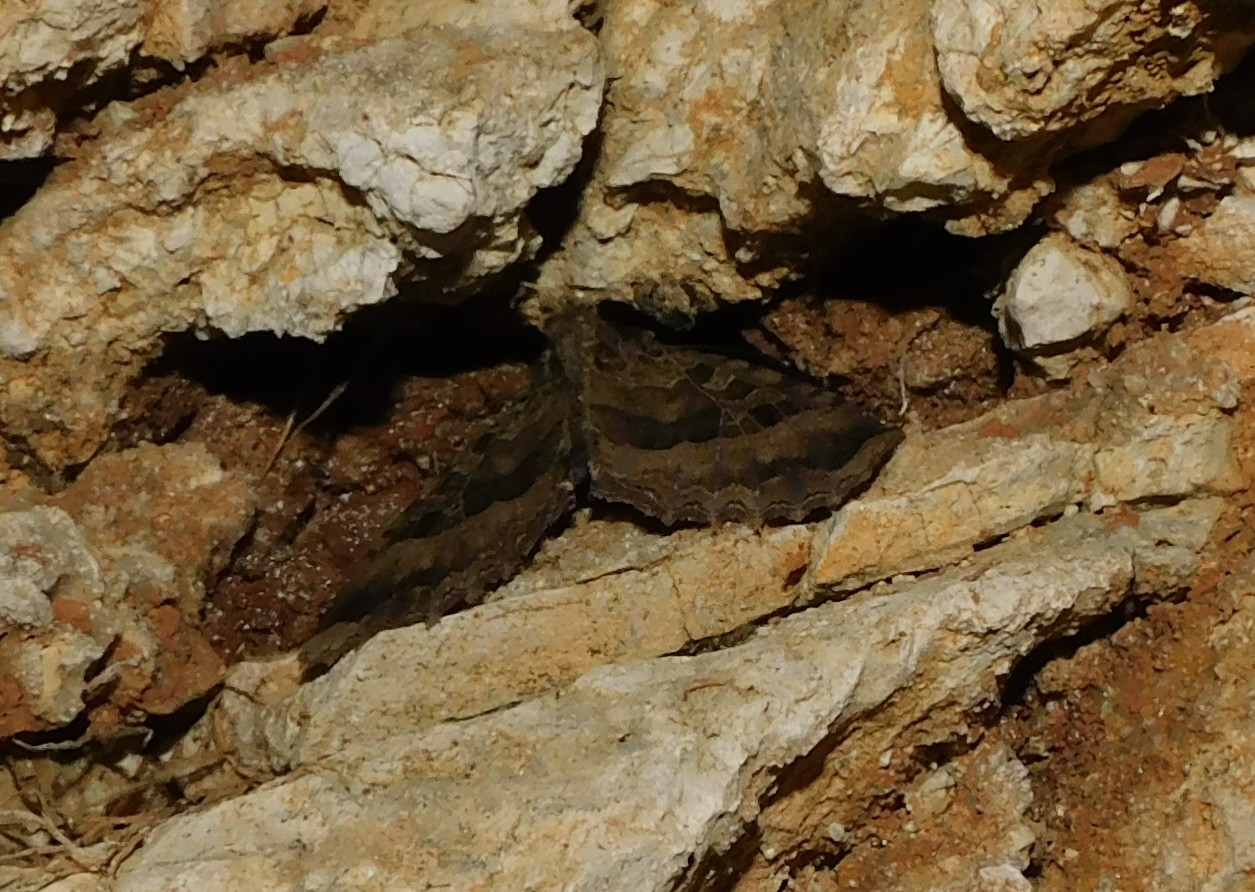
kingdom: Animalia
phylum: Arthropoda
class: Insecta
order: Lepidoptera
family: Noctuidae
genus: Mormo
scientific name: Mormo maura
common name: Old lady
